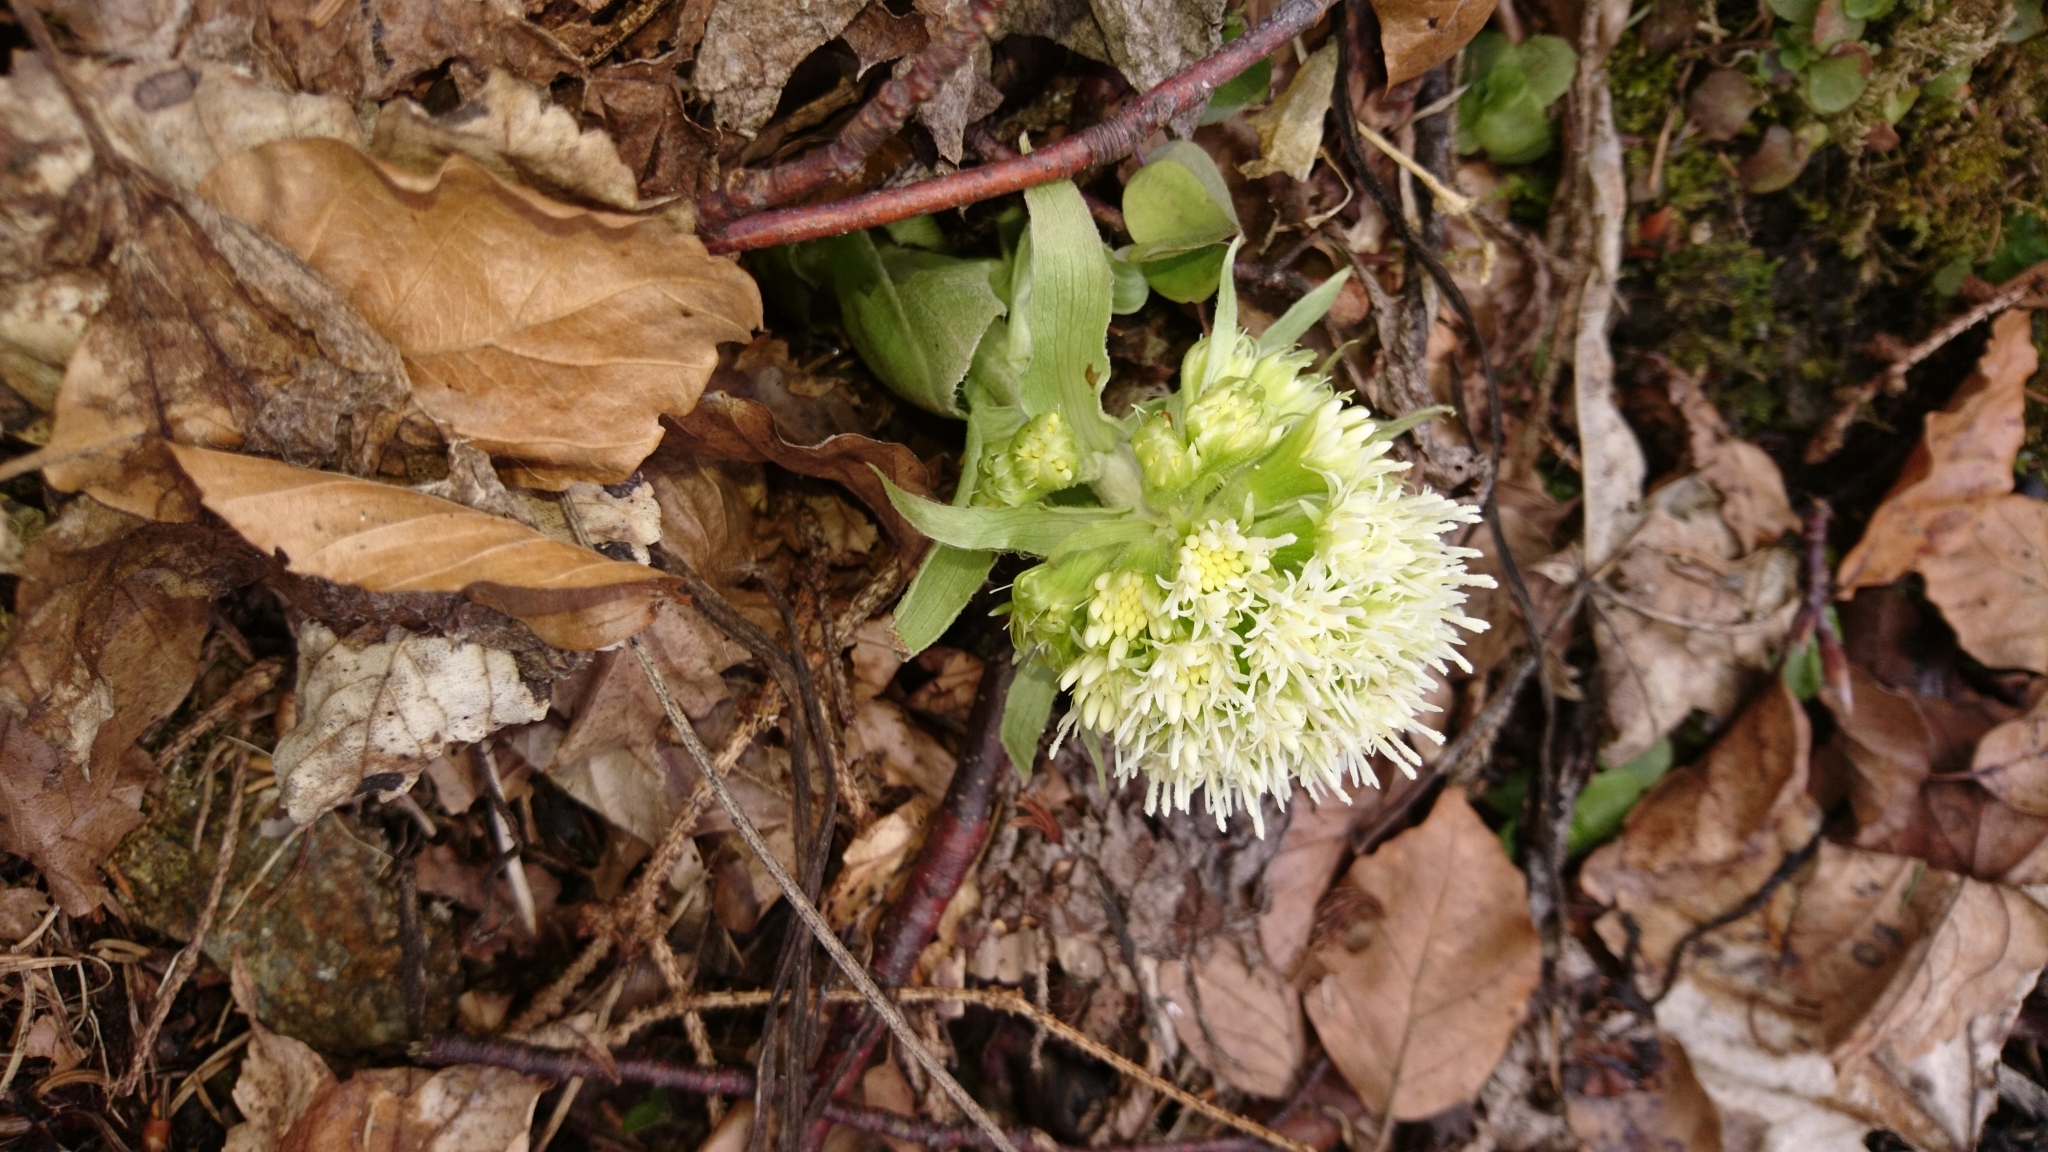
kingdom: Plantae
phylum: Tracheophyta
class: Magnoliopsida
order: Asterales
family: Asteraceae
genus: Petasites
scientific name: Petasites albus
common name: White butterbur
